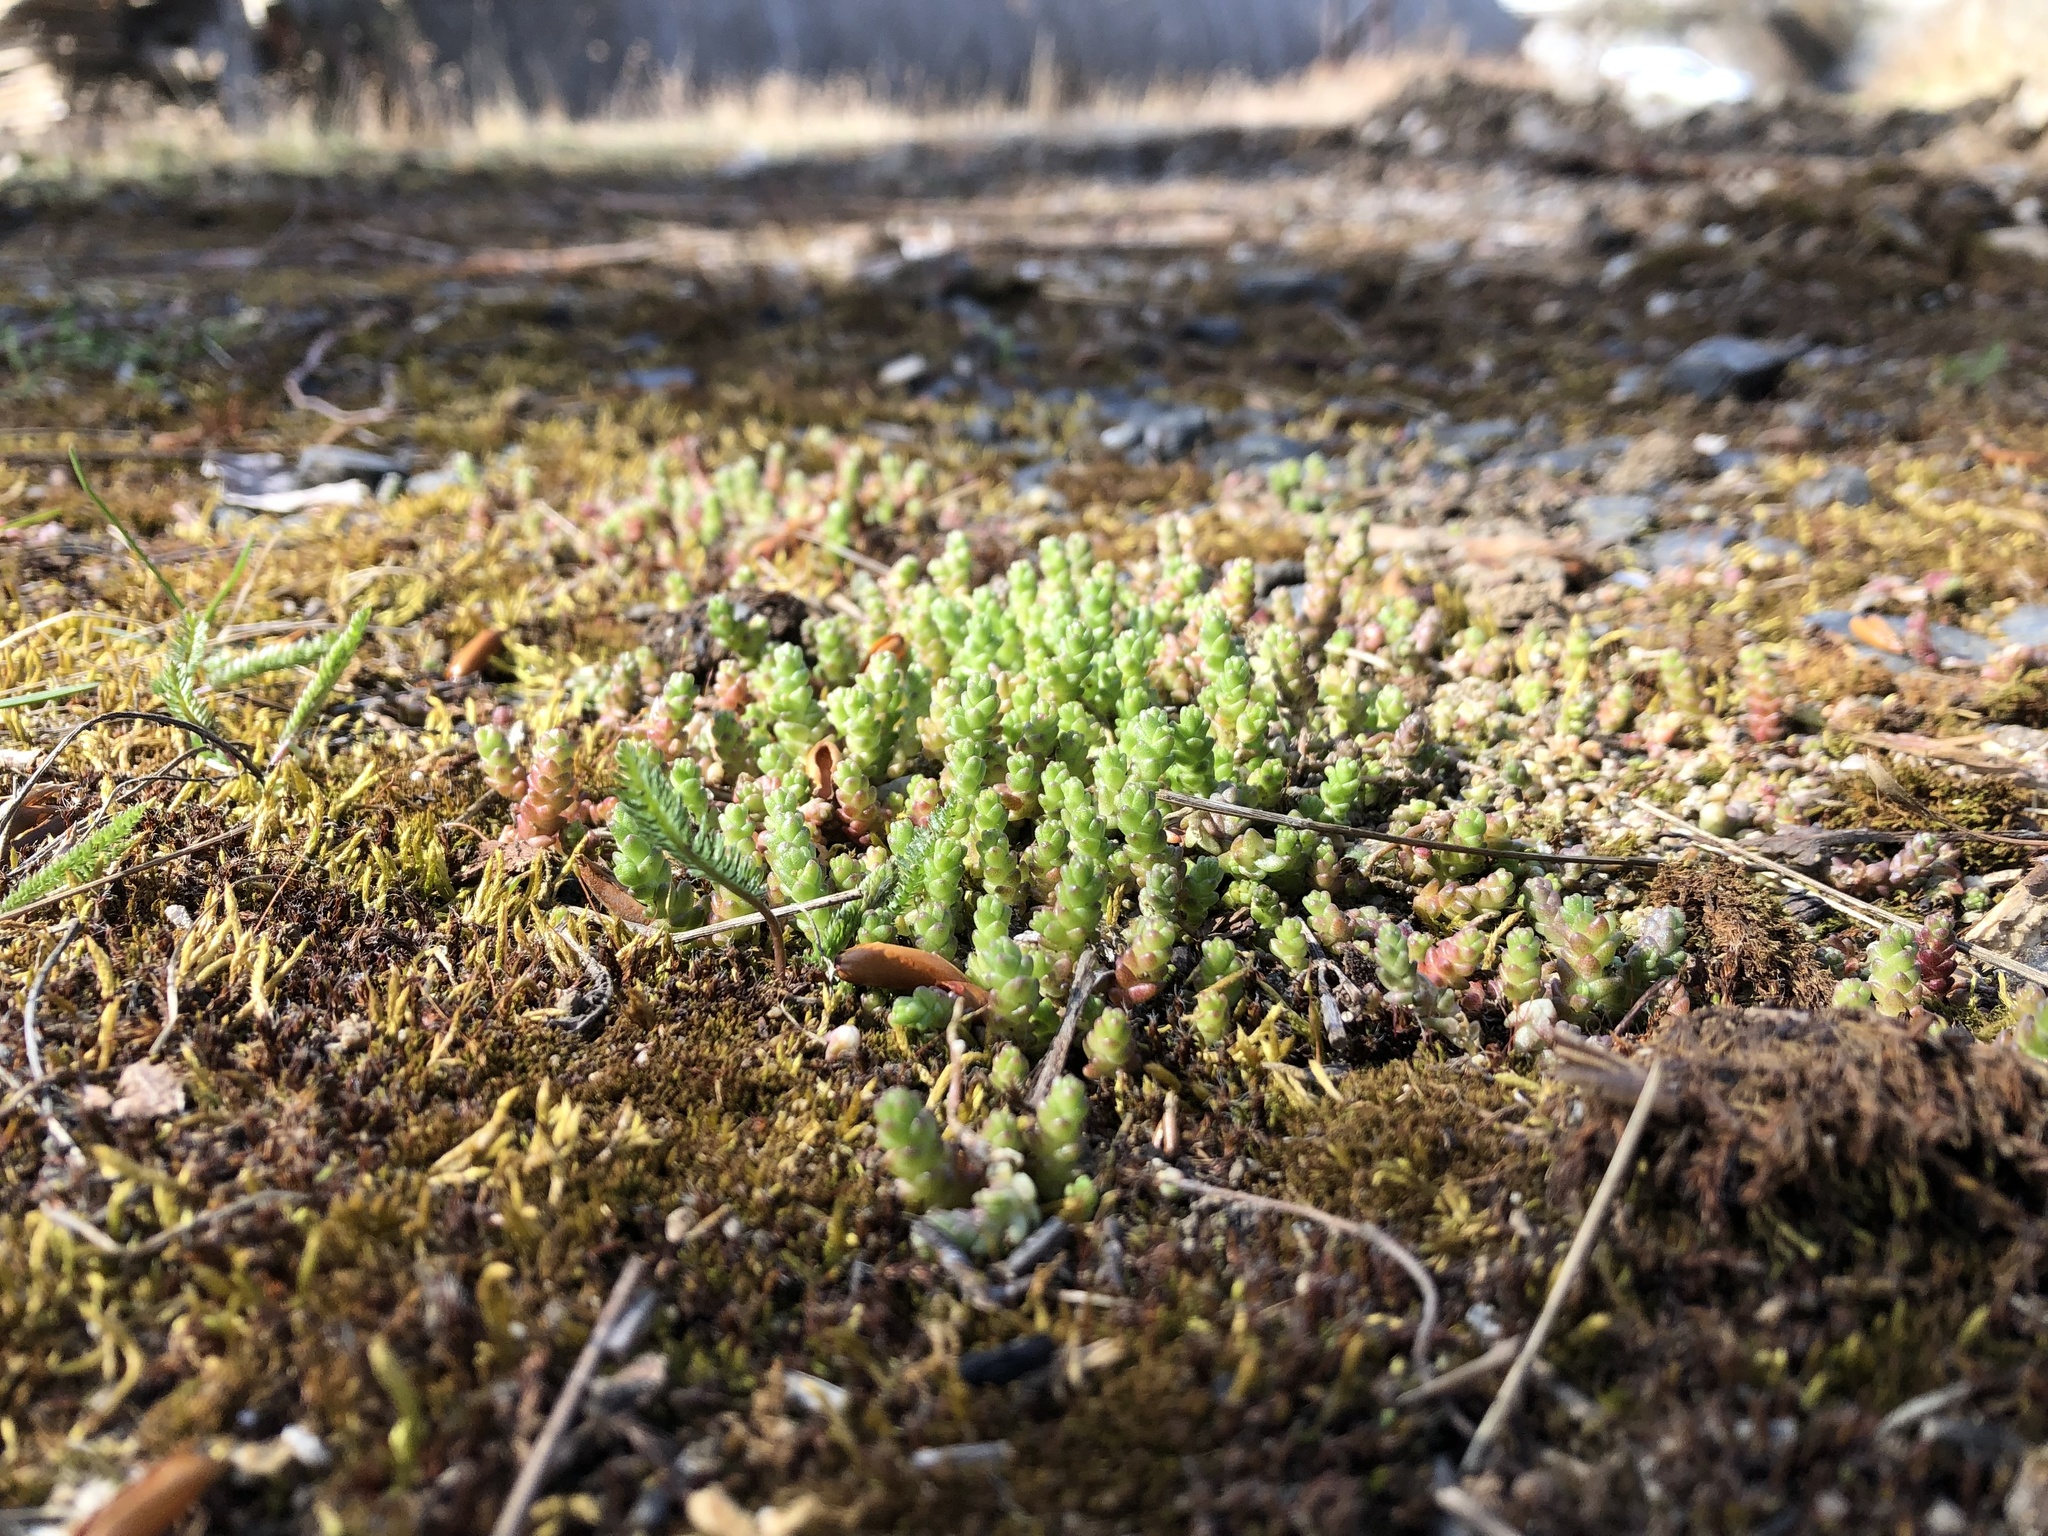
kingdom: Plantae
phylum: Tracheophyta
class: Magnoliopsida
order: Saxifragales
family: Crassulaceae
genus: Sedum
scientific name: Sedum acre
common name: Biting stonecrop
